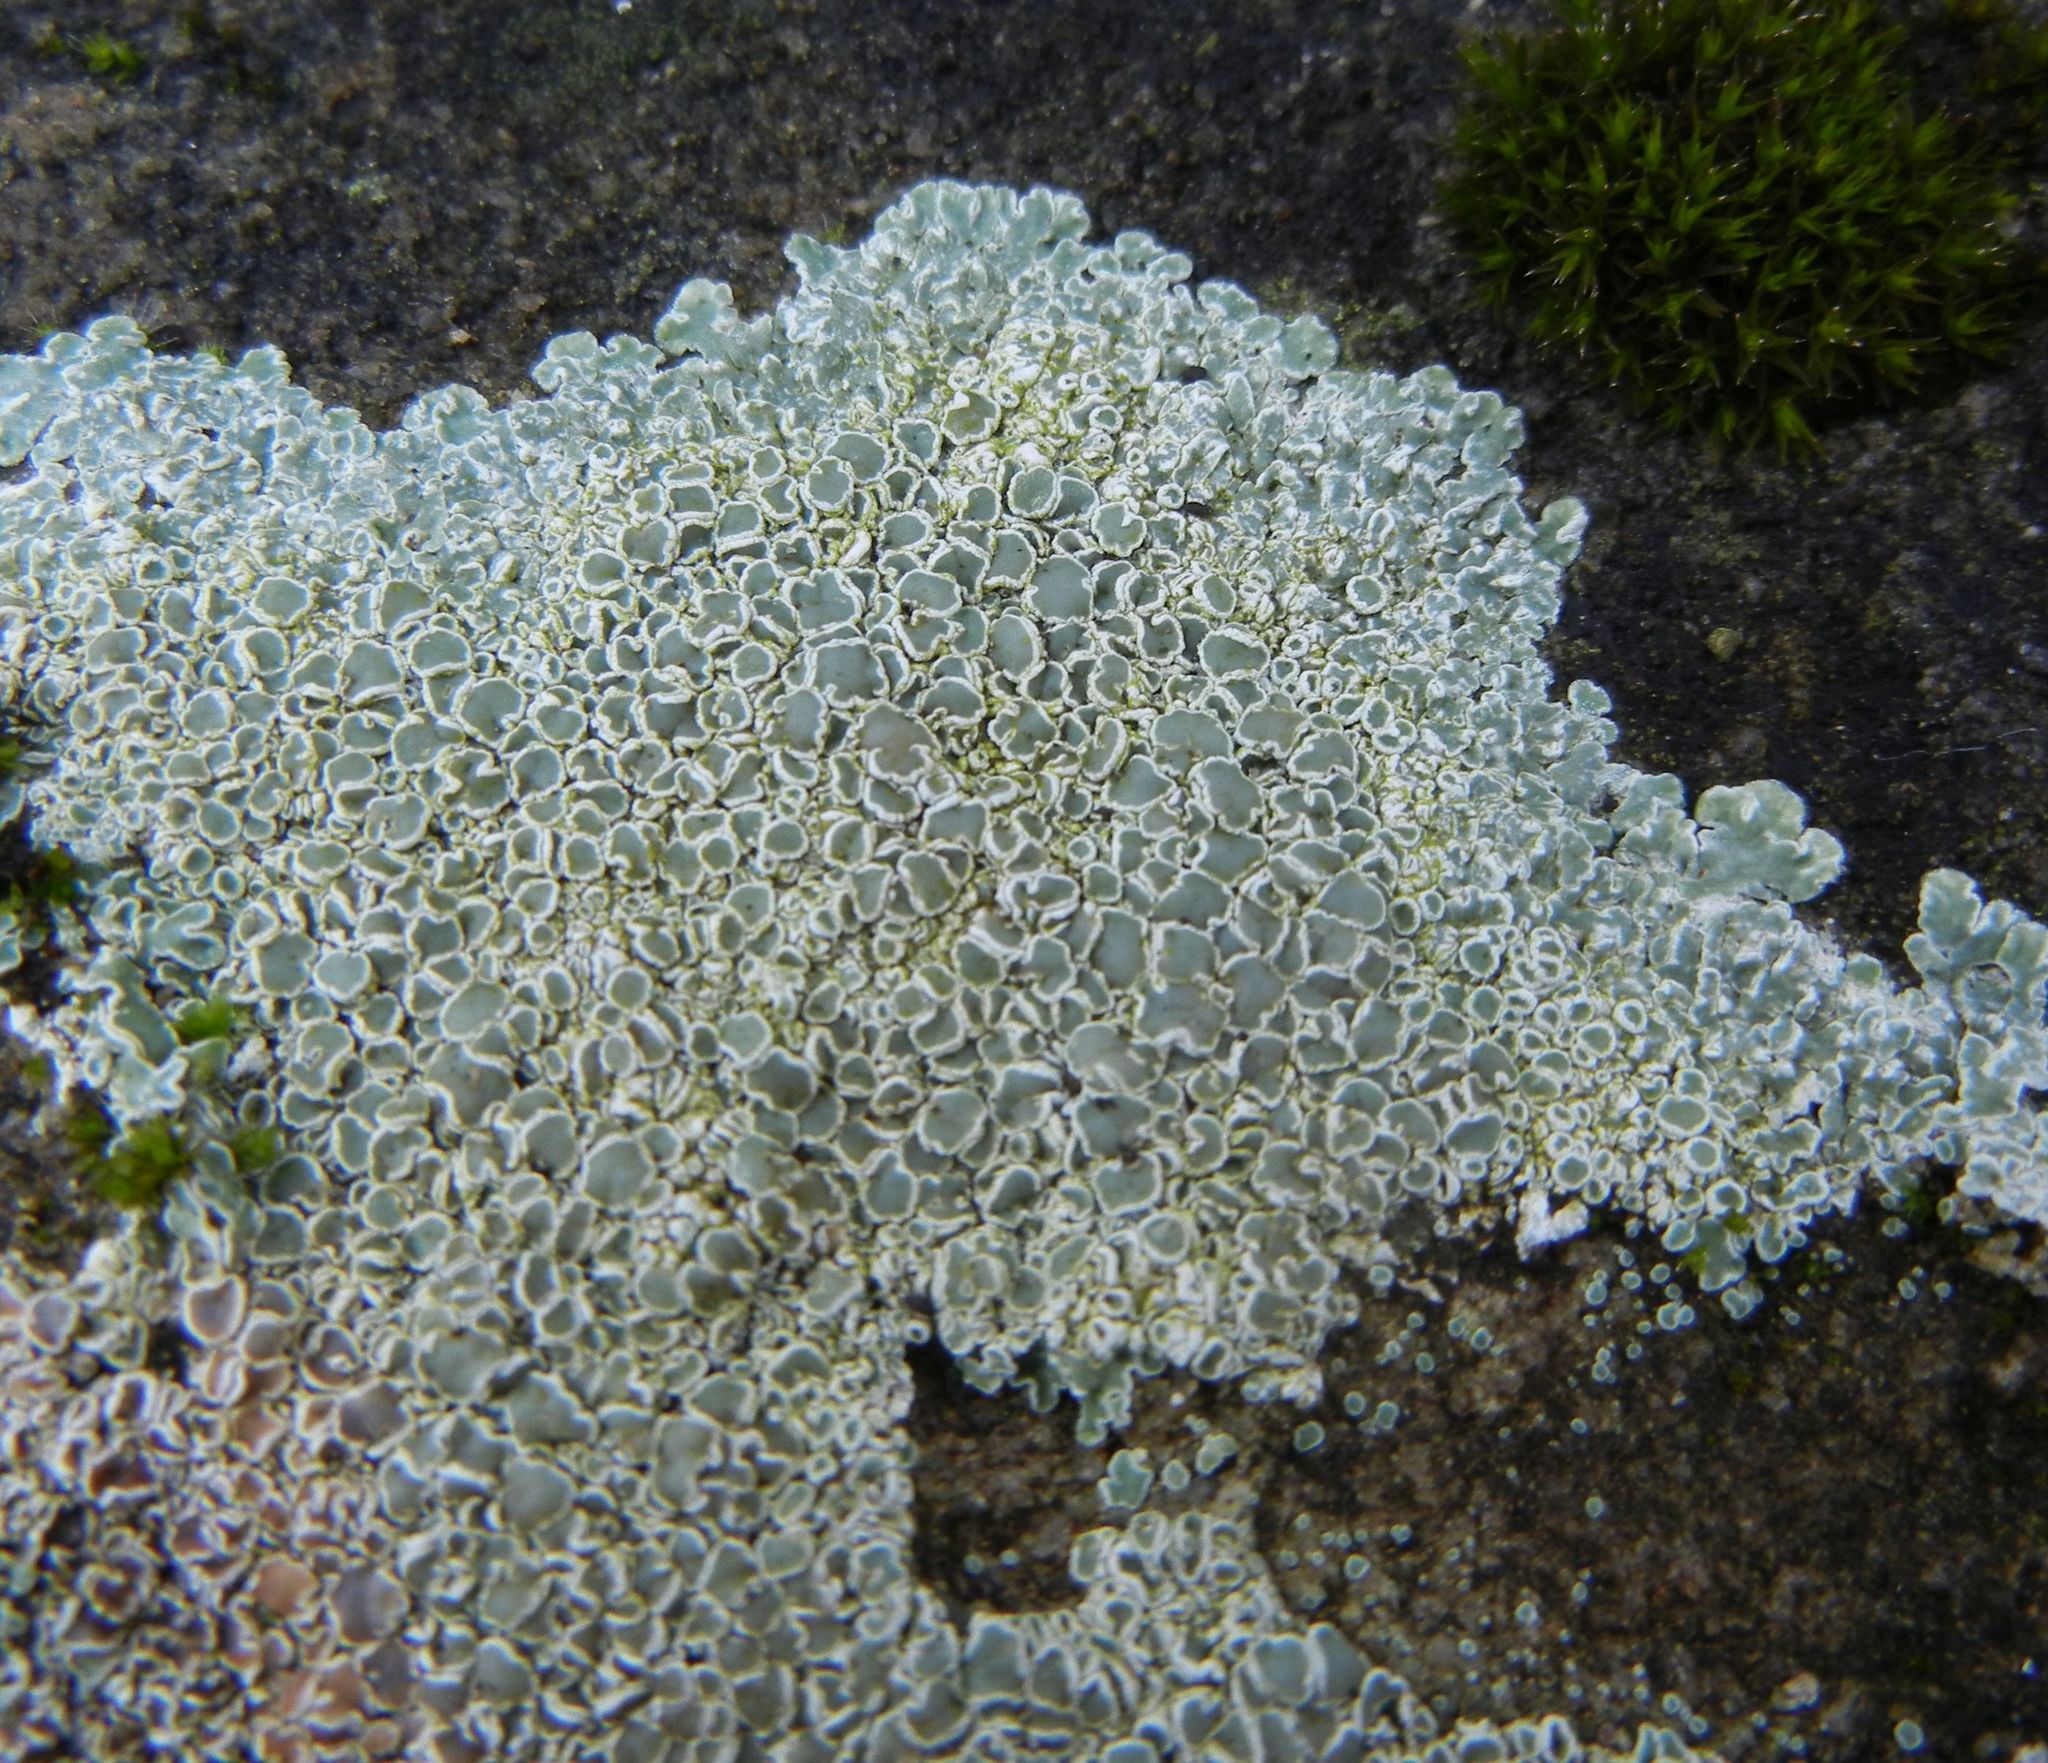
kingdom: Fungi
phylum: Ascomycota
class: Lecanoromycetes
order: Lecanorales
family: Lecanoraceae
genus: Protoparmeliopsis
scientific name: Protoparmeliopsis muralis
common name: Stonewall rim lichen
